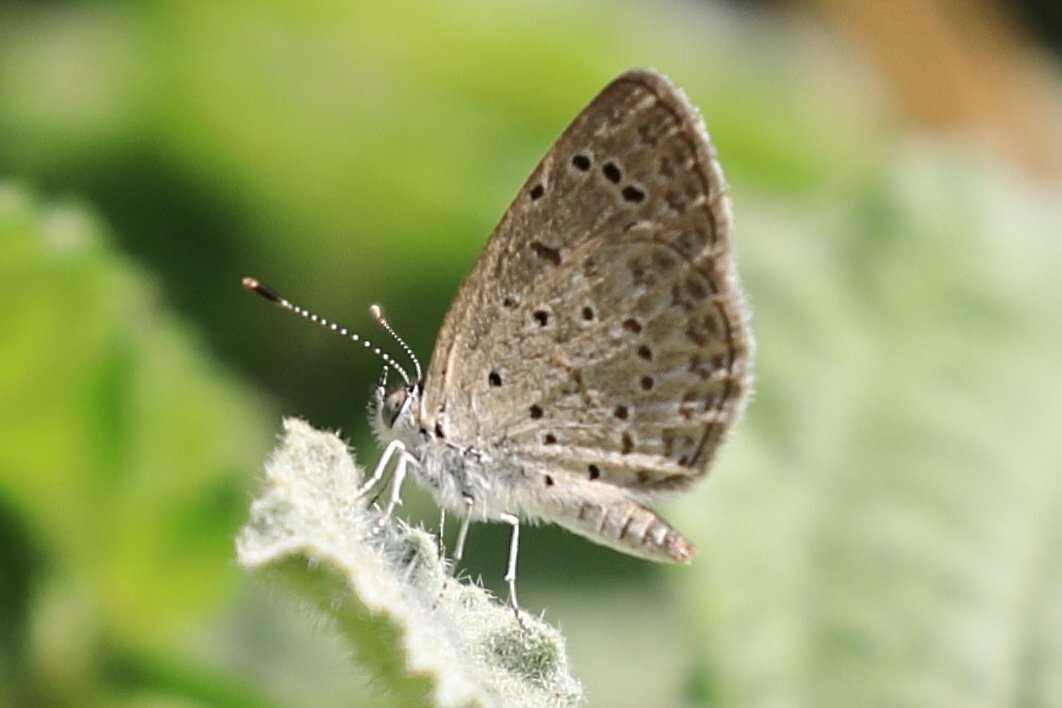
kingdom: Animalia
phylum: Arthropoda
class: Insecta
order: Lepidoptera
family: Lycaenidae
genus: Zizeeria
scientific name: Zizeeria knysna
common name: African grass blue
